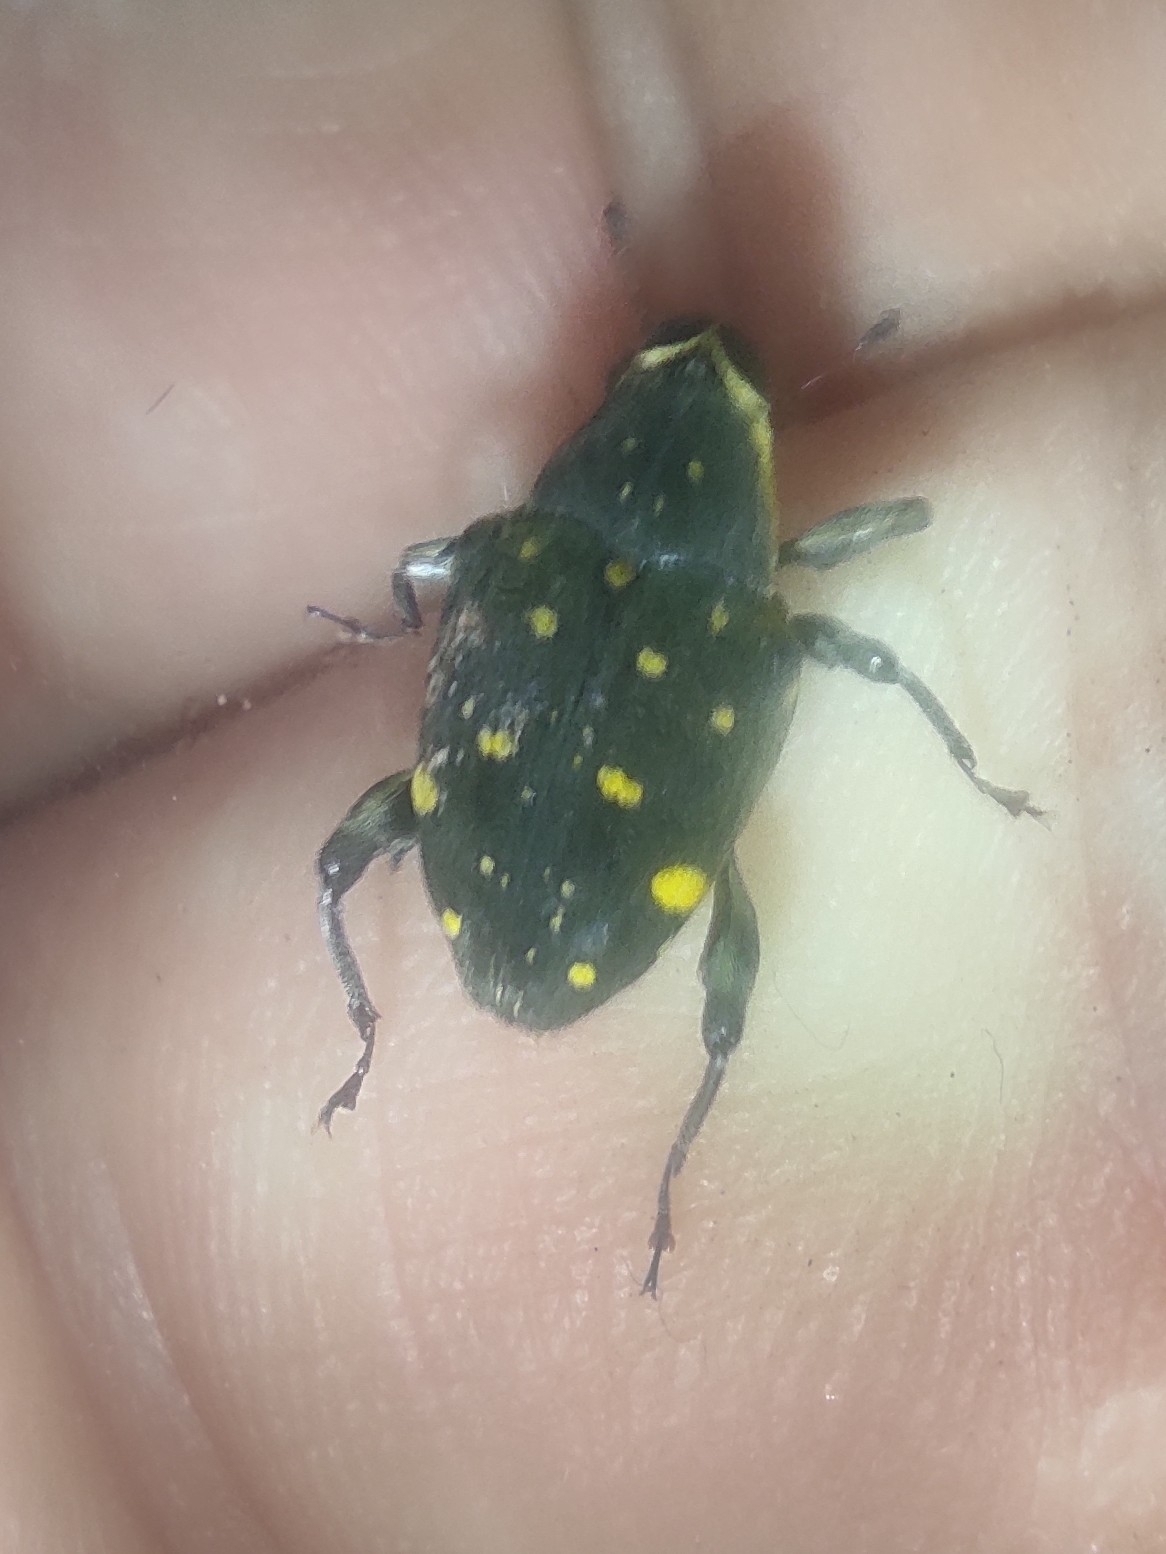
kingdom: Animalia
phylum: Arthropoda
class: Insecta
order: Coleoptera
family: Curculionidae
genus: Piazurus
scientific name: Piazurus sulphuriventris
